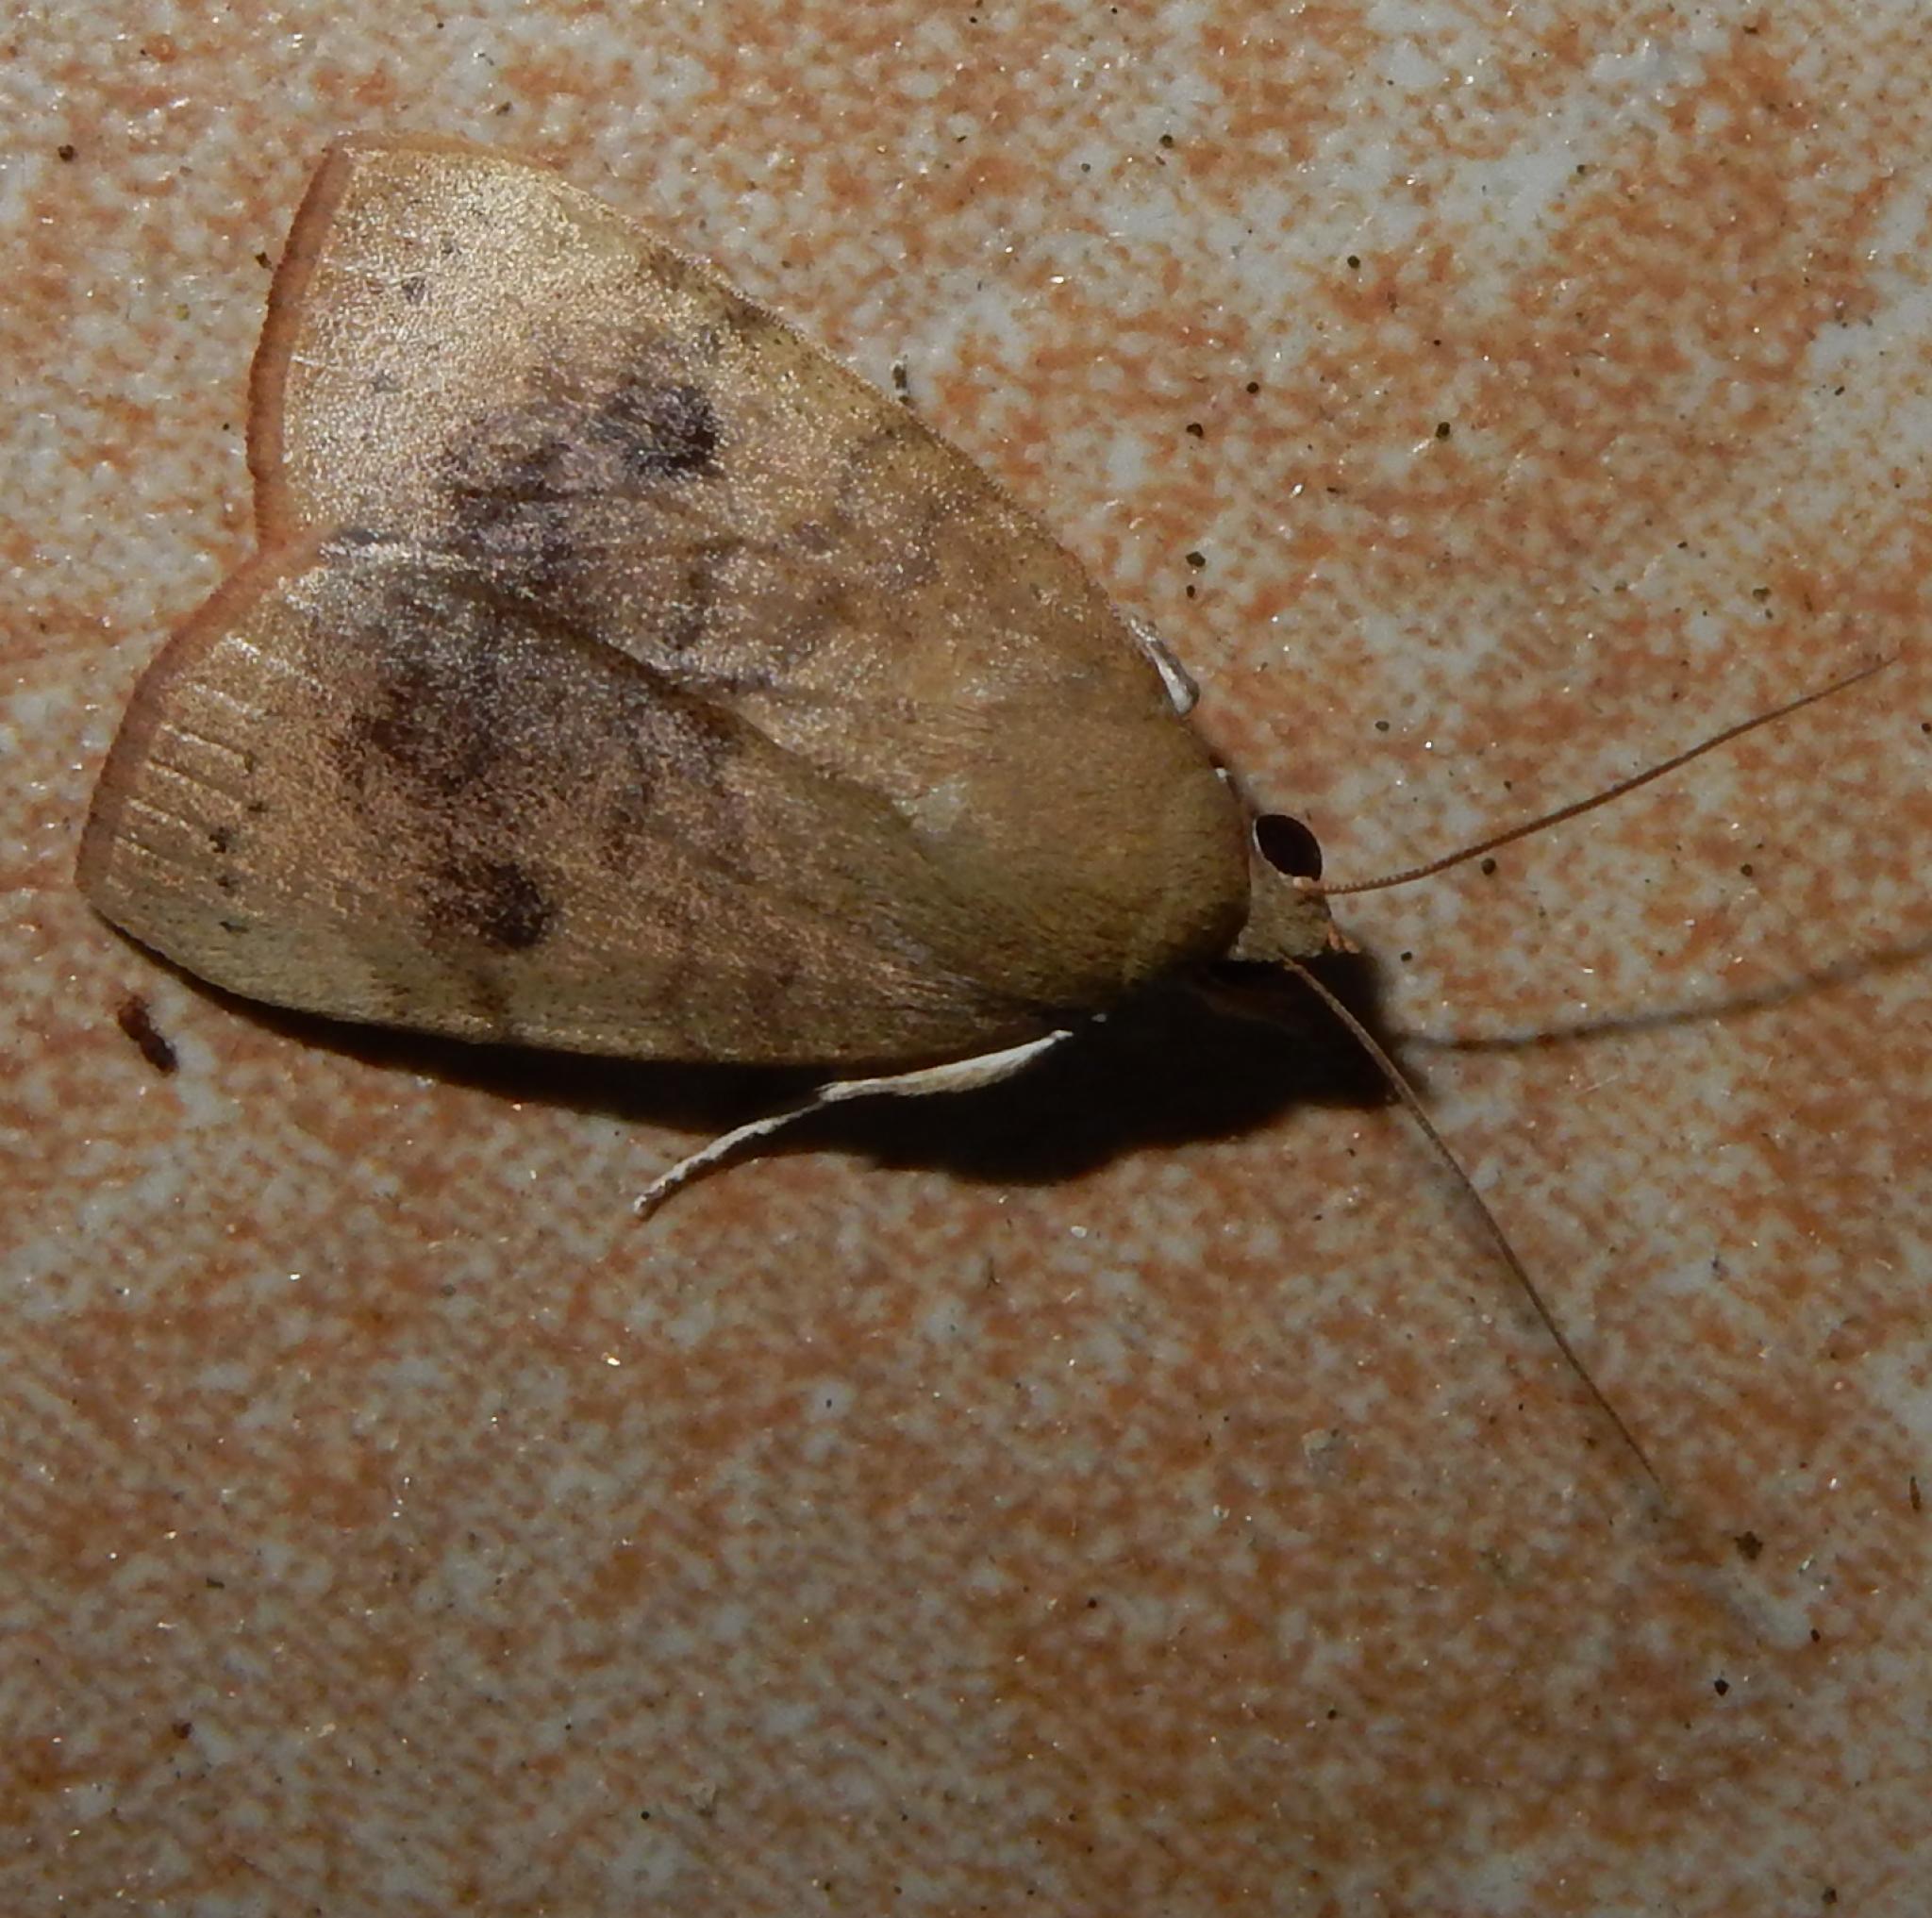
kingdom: Animalia
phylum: Arthropoda
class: Insecta
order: Lepidoptera
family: Nolidae
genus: Maurilia
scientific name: Maurilia arcuata
